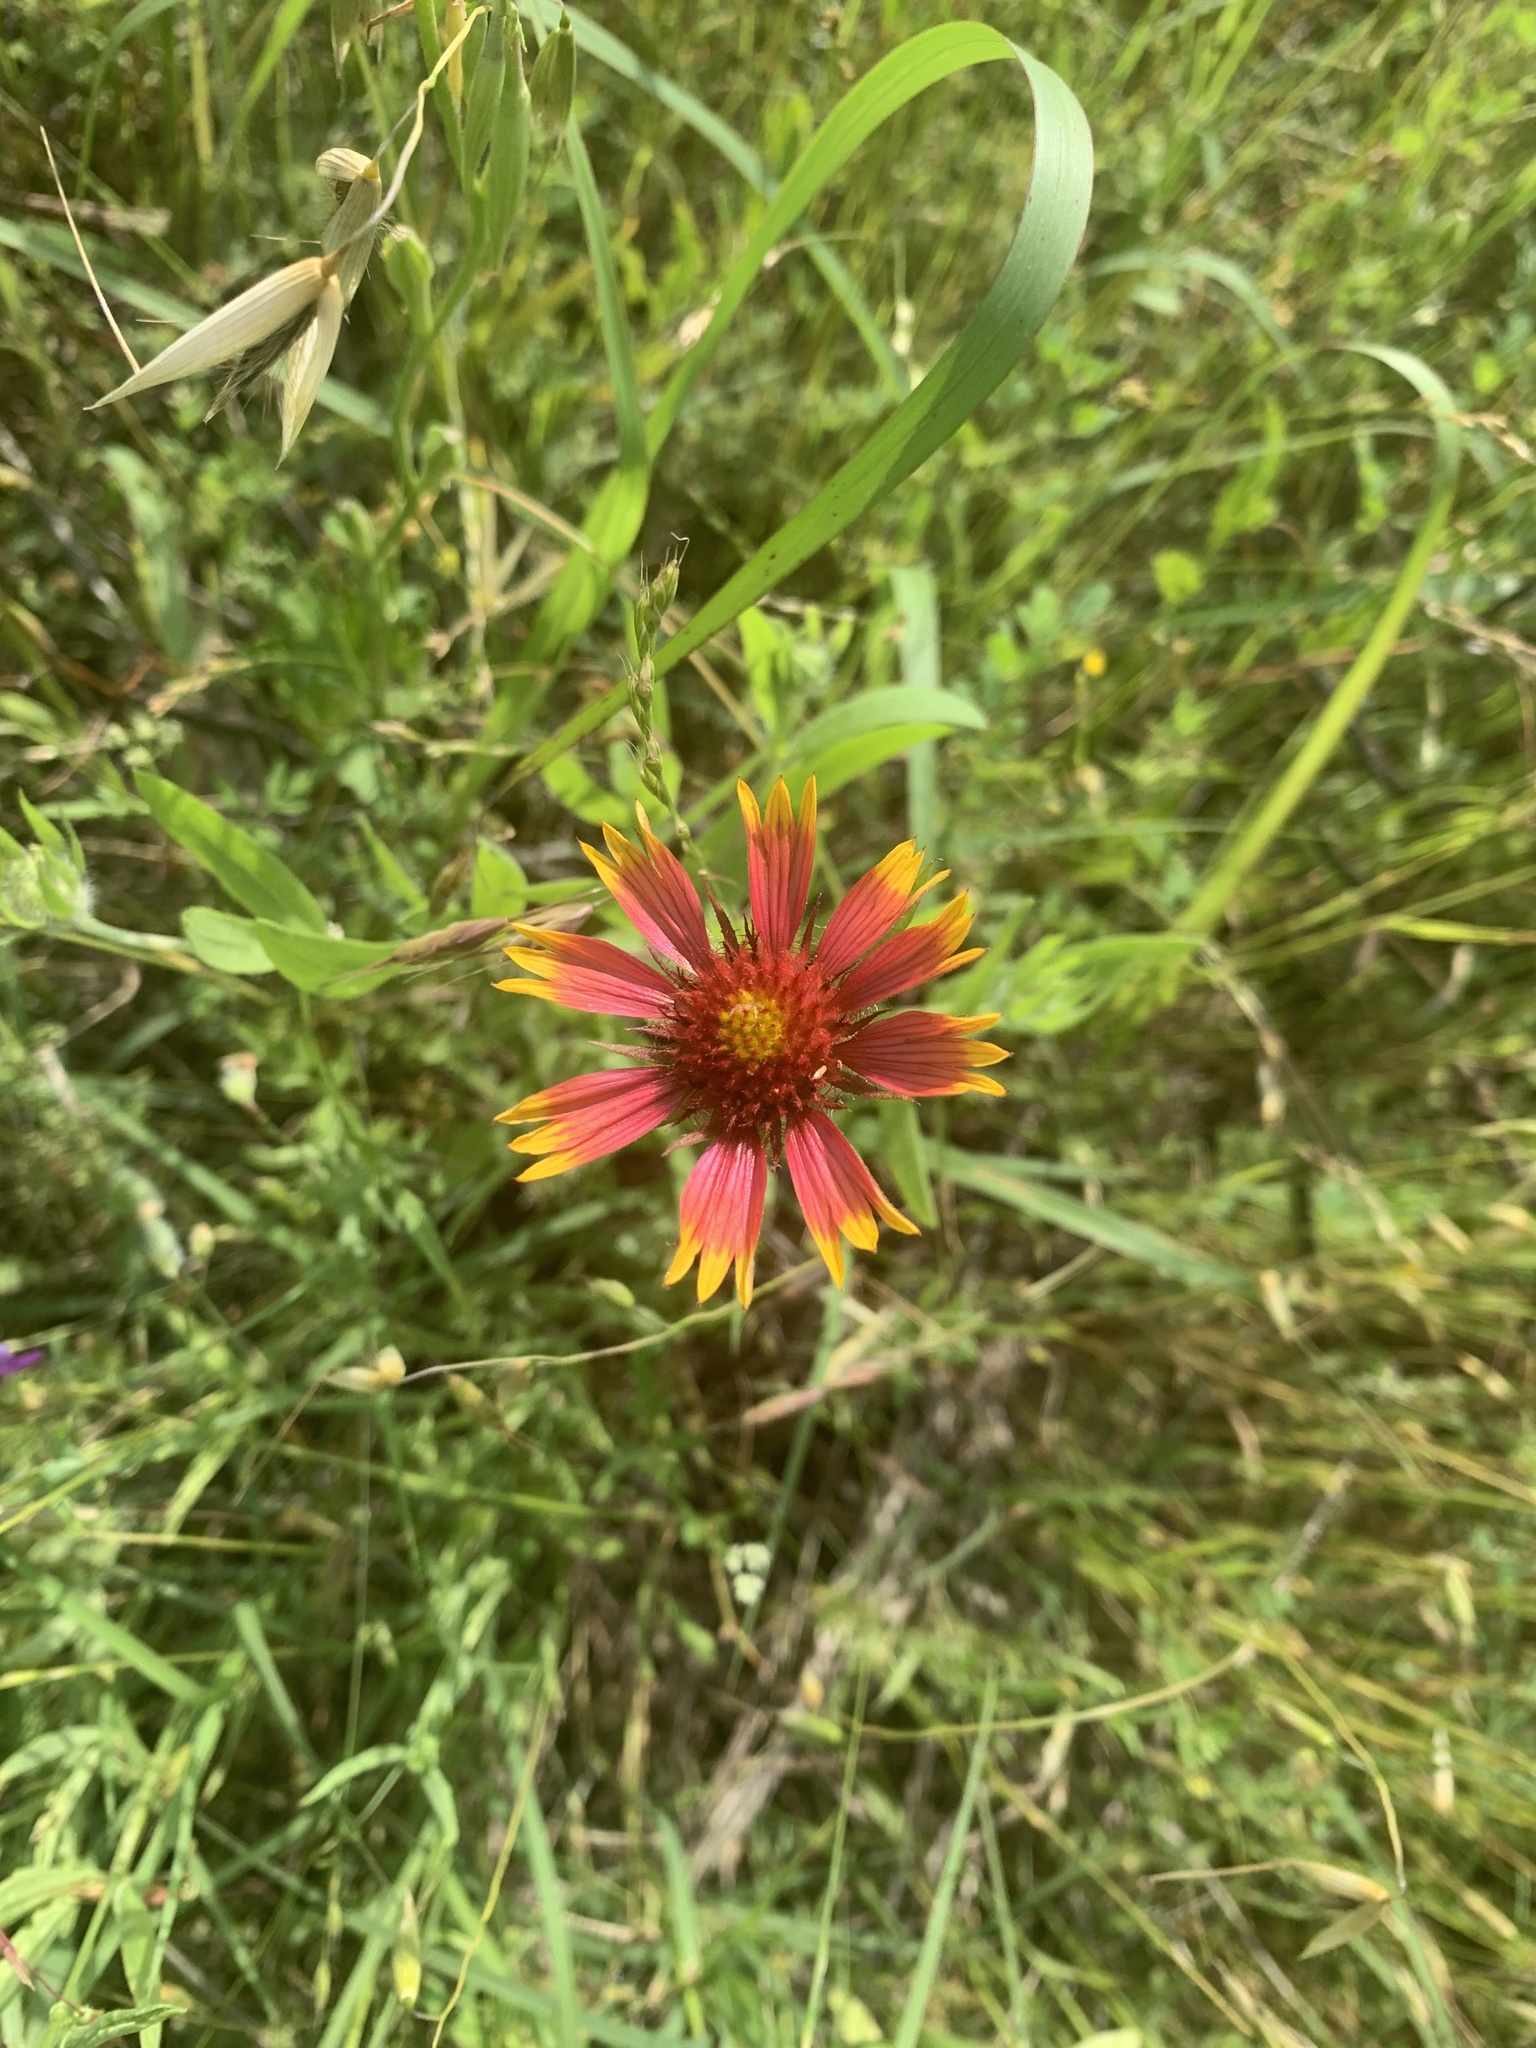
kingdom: Plantae
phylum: Tracheophyta
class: Magnoliopsida
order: Asterales
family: Asteraceae
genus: Gaillardia
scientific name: Gaillardia pulchella
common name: Firewheel
